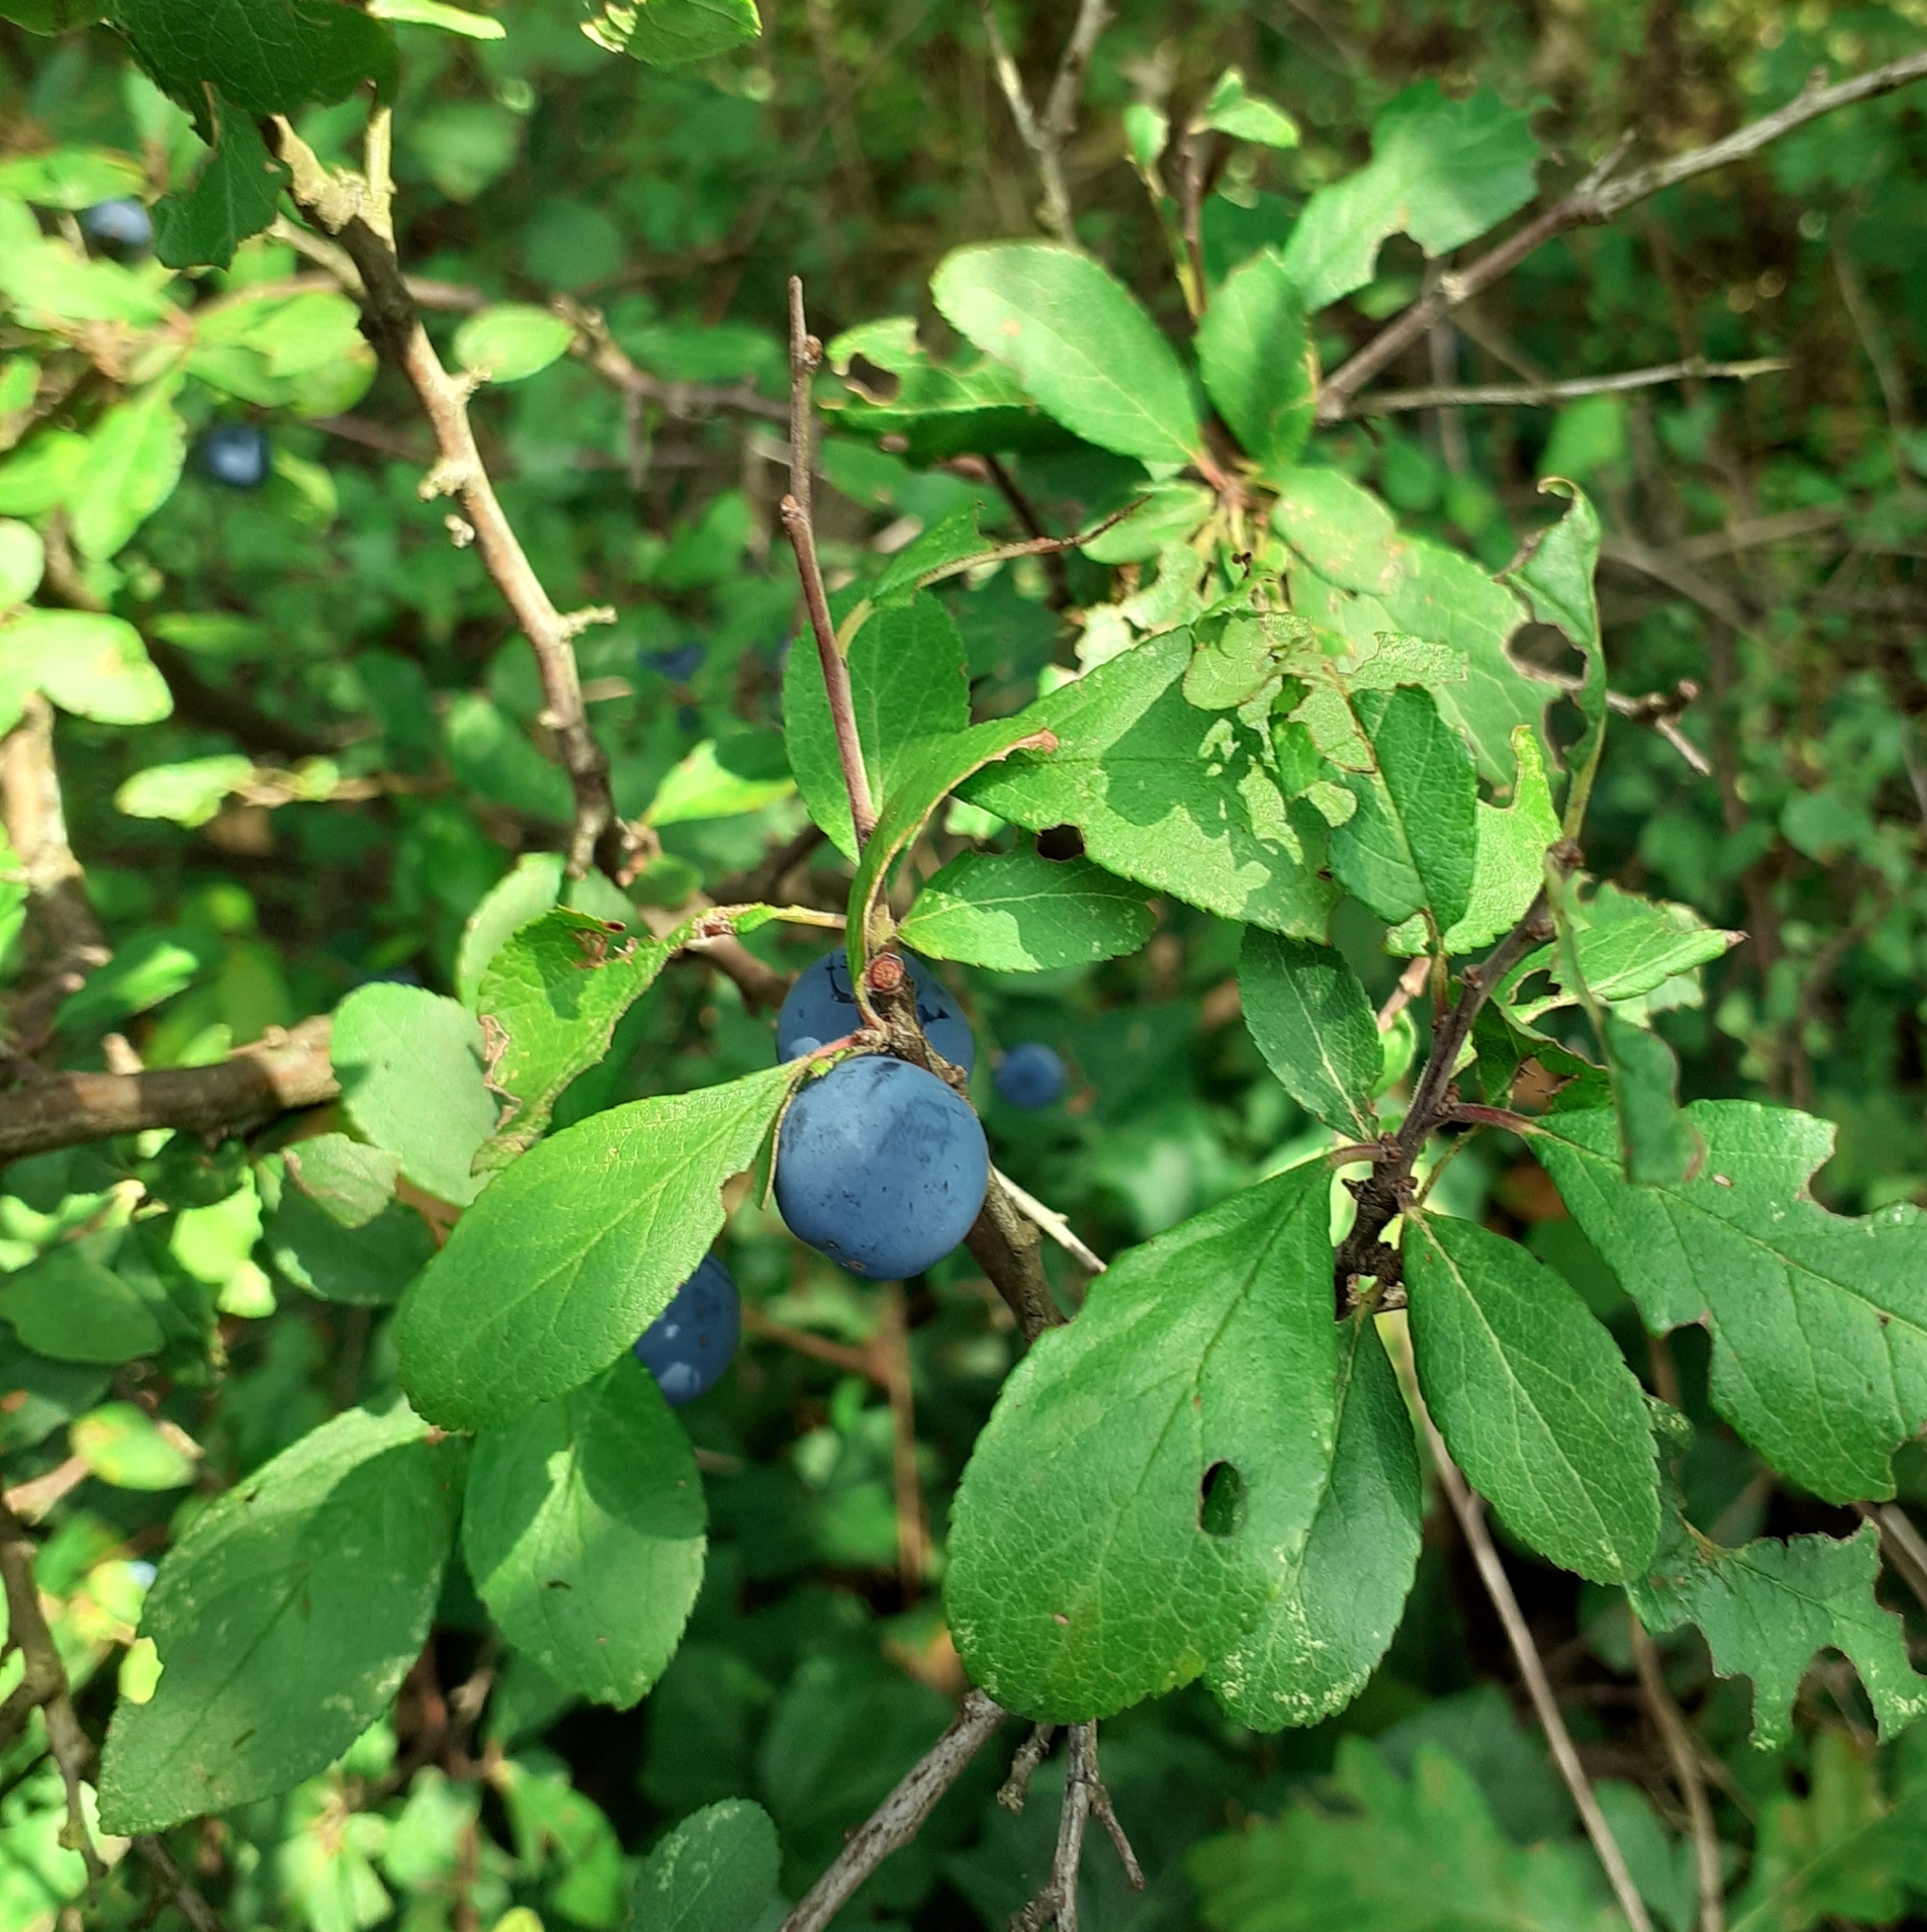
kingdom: Plantae
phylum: Tracheophyta
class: Magnoliopsida
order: Rosales
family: Rosaceae
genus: Prunus
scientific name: Prunus spinosa
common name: Blackthorn
